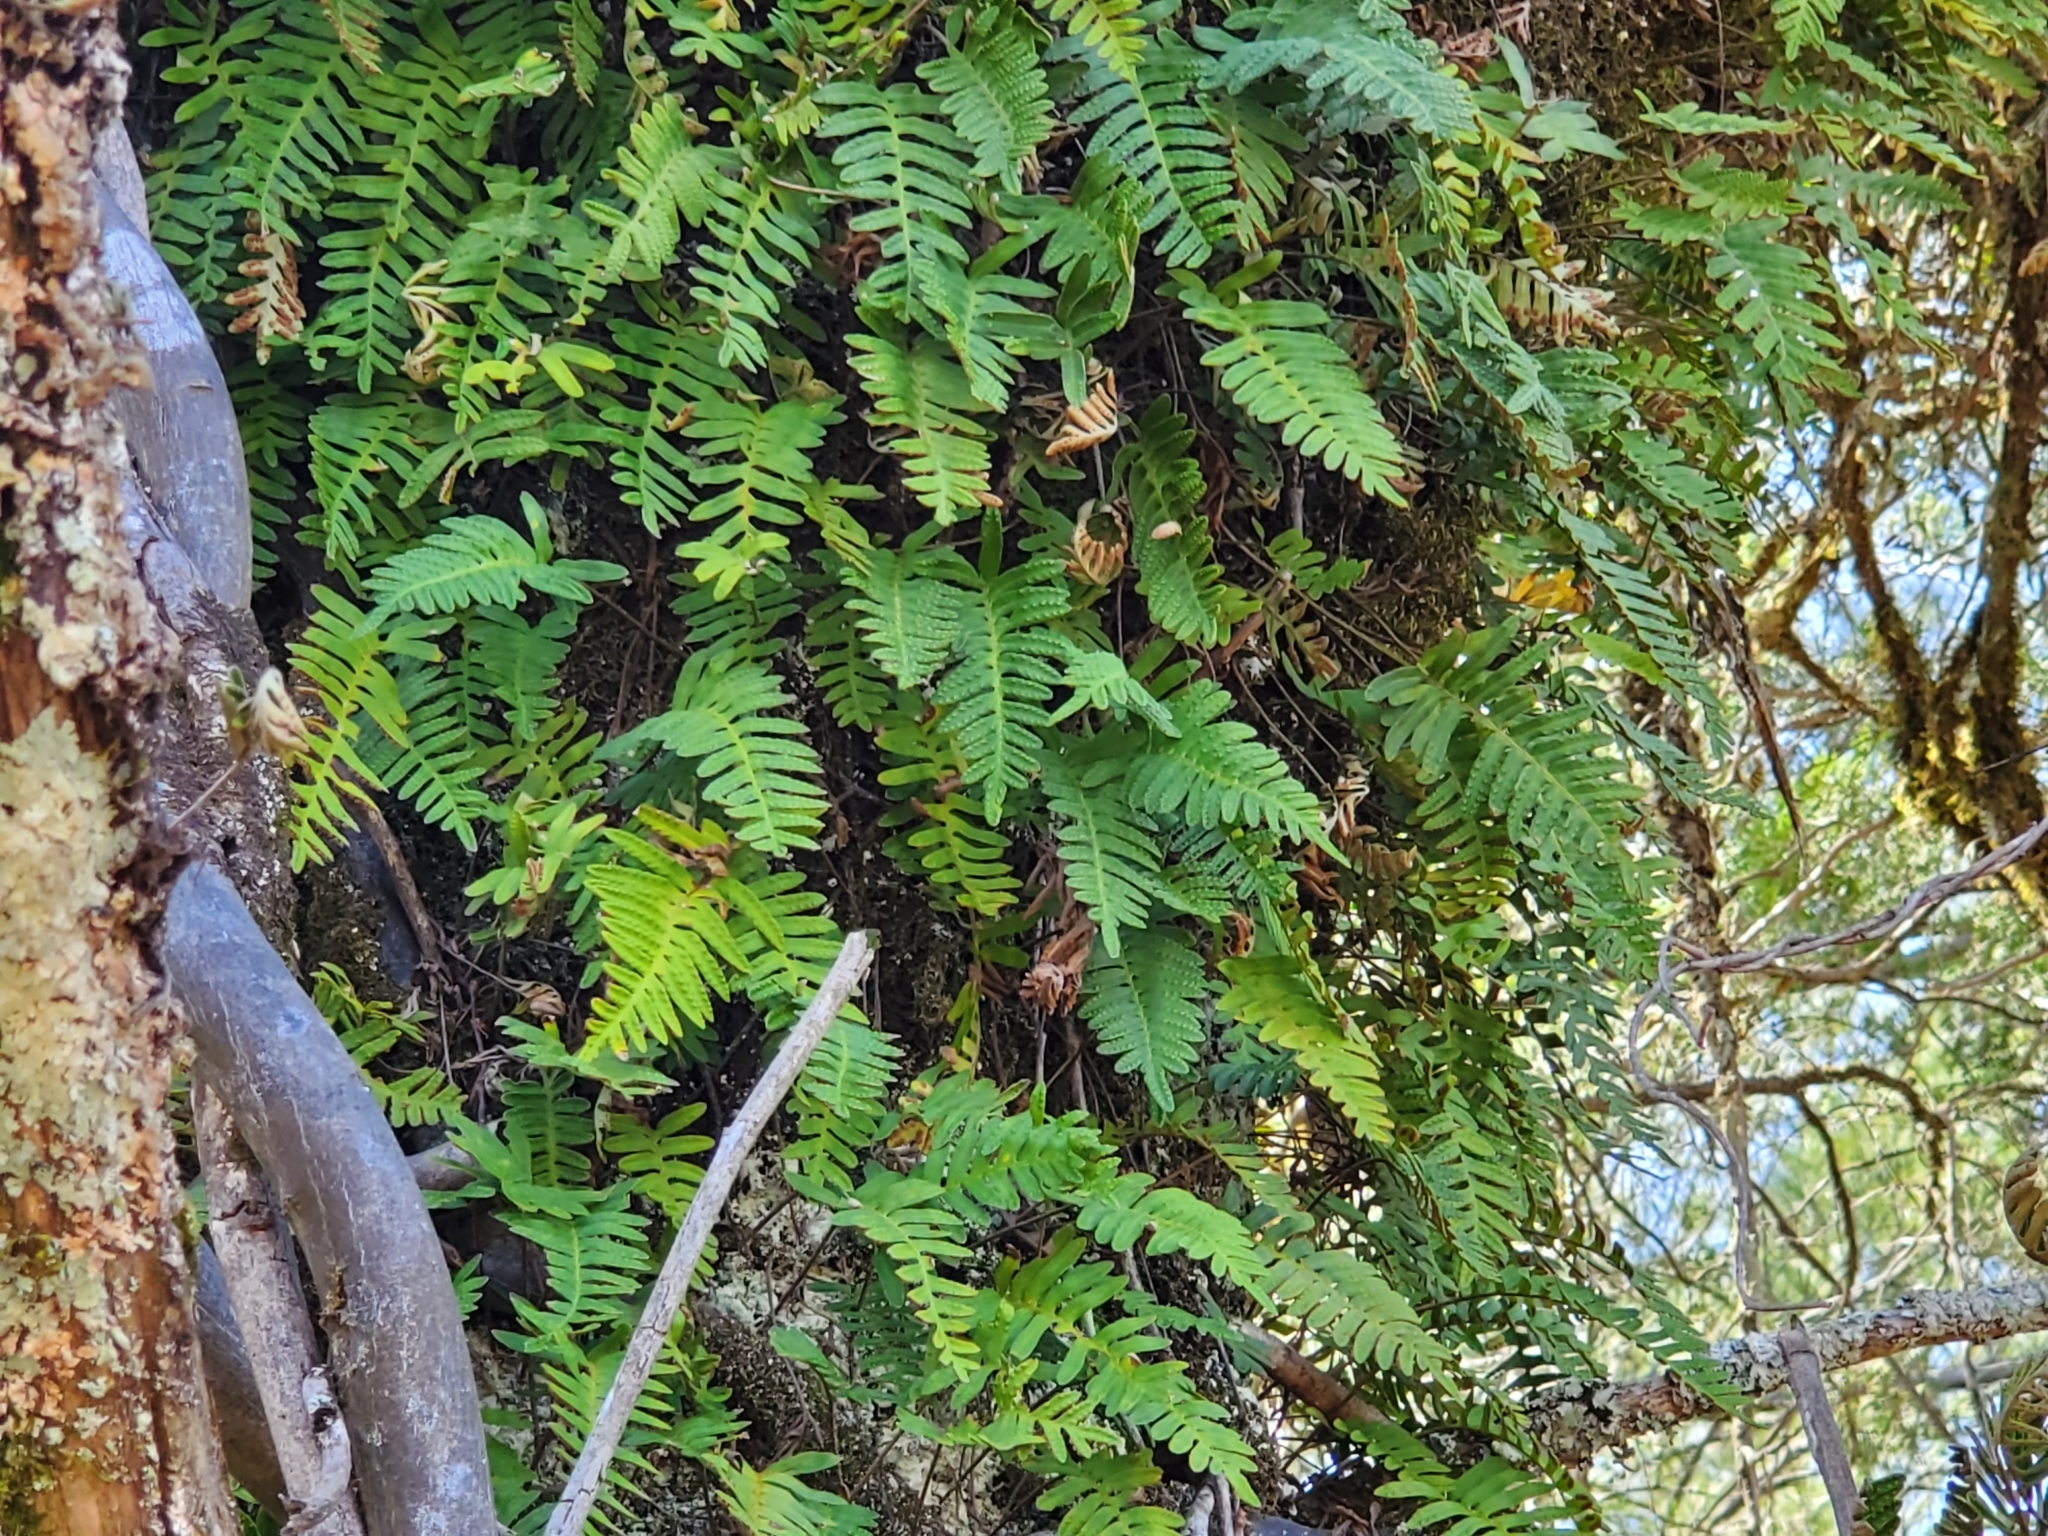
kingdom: Plantae
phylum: Tracheophyta
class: Polypodiopsida
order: Polypodiales
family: Polypodiaceae
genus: Pleopeltis
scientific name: Pleopeltis michauxiana
